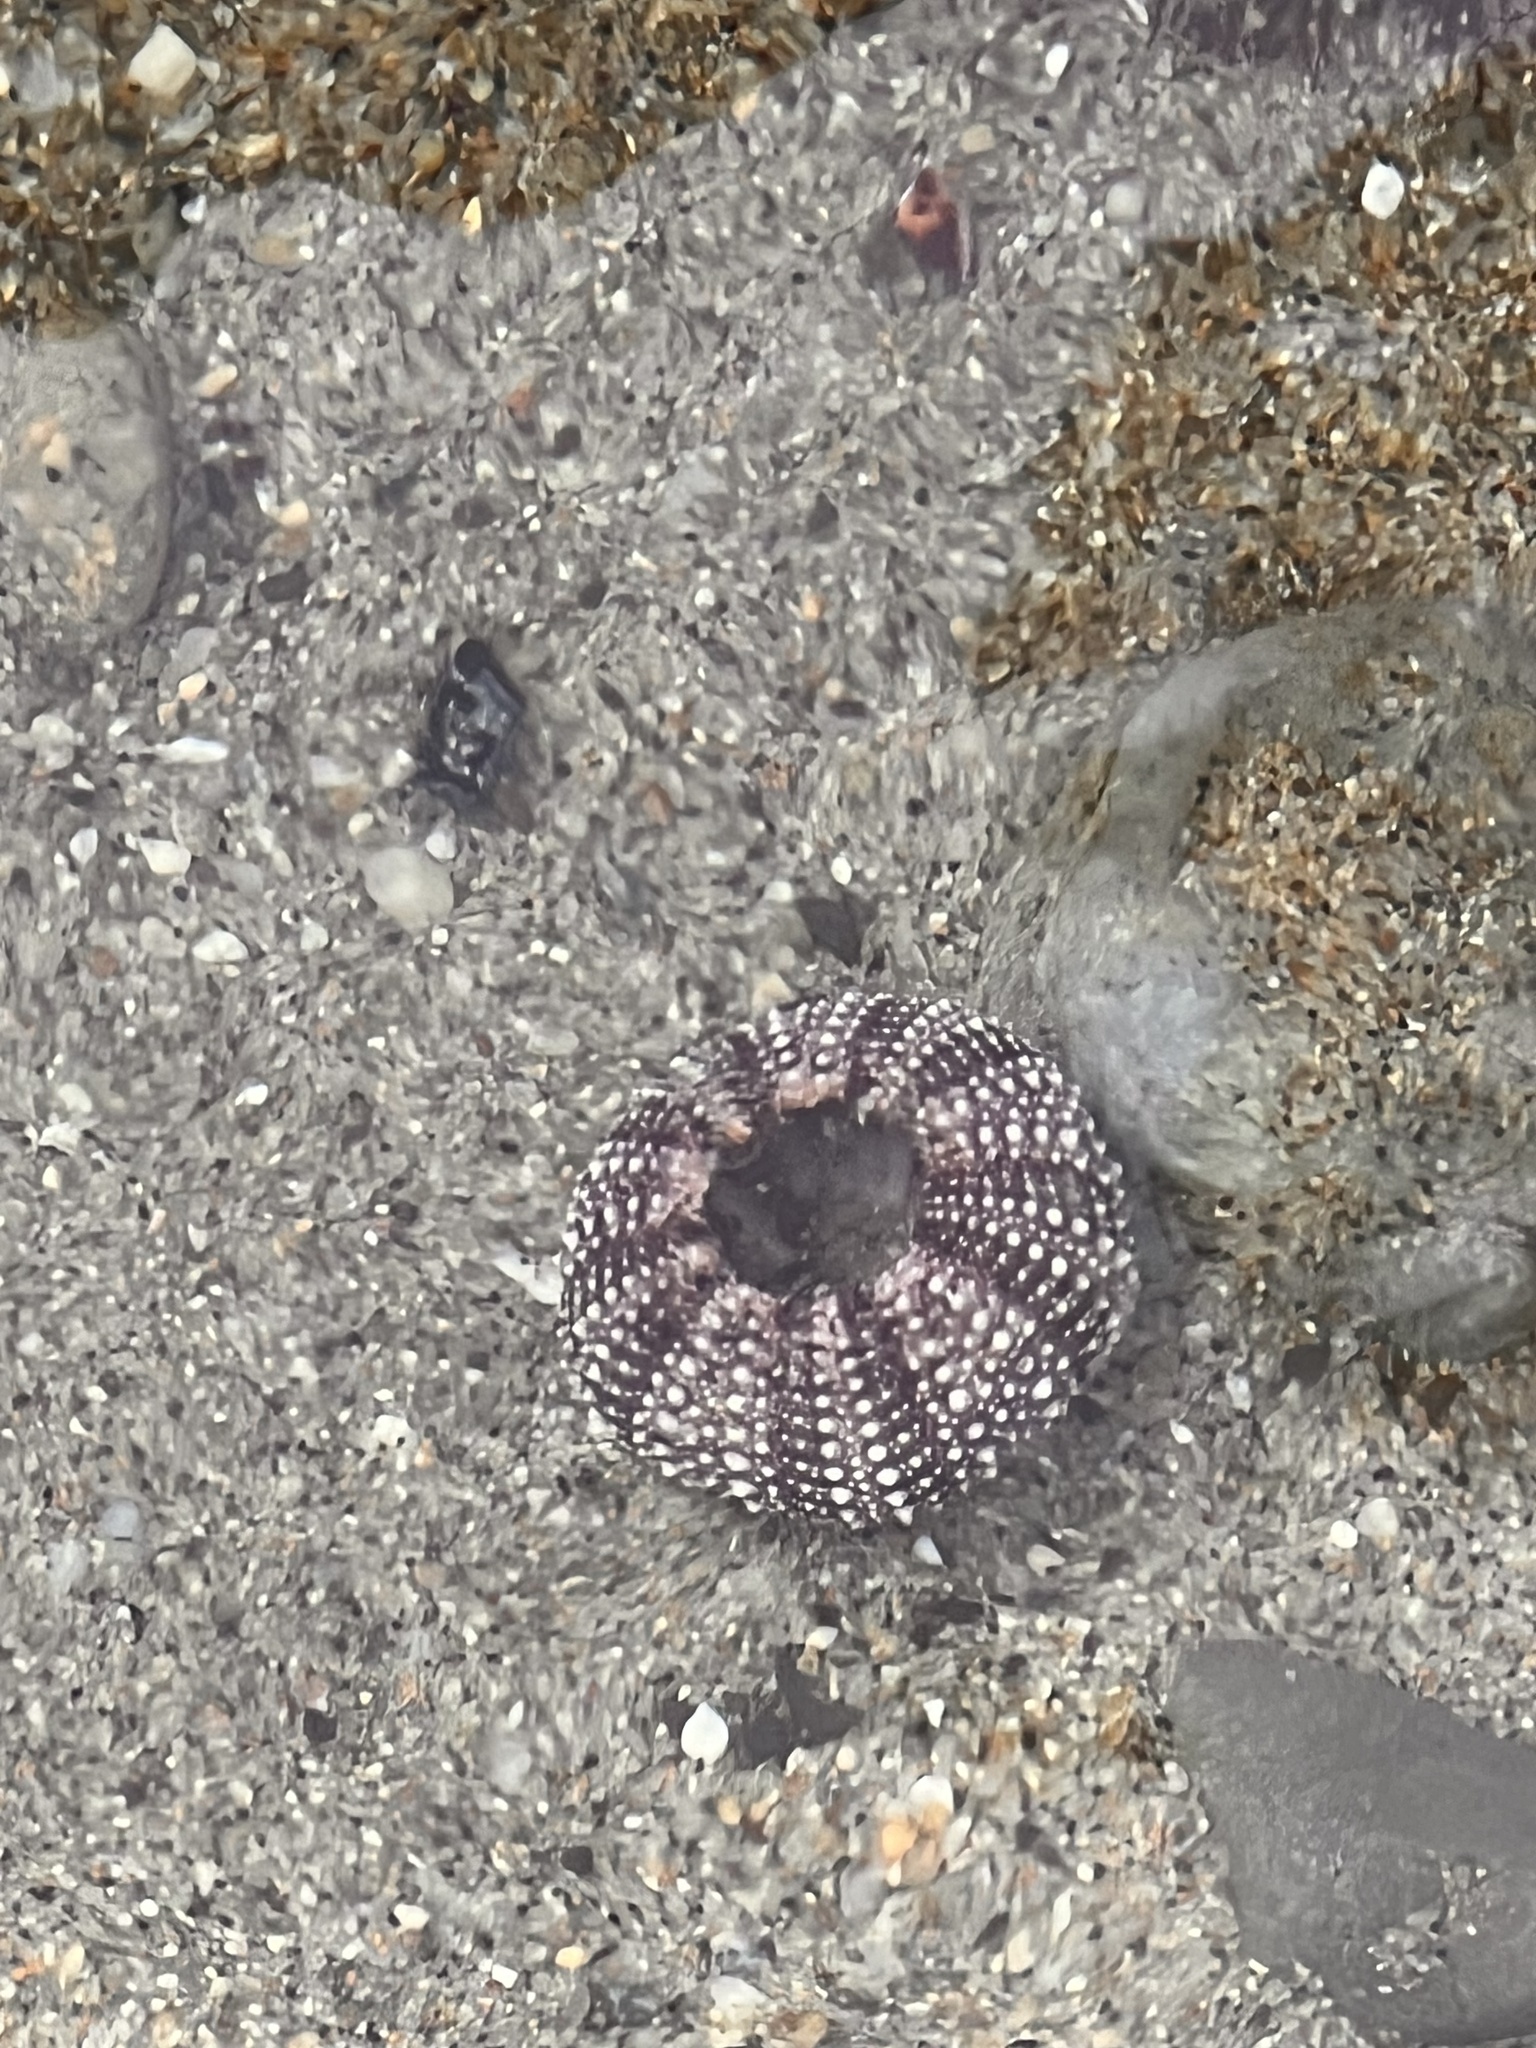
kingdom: Animalia
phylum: Echinodermata
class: Echinoidea
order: Camarodonta
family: Strongylocentrotidae
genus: Strongylocentrotus
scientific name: Strongylocentrotus purpuratus
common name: Purple sea urchin
